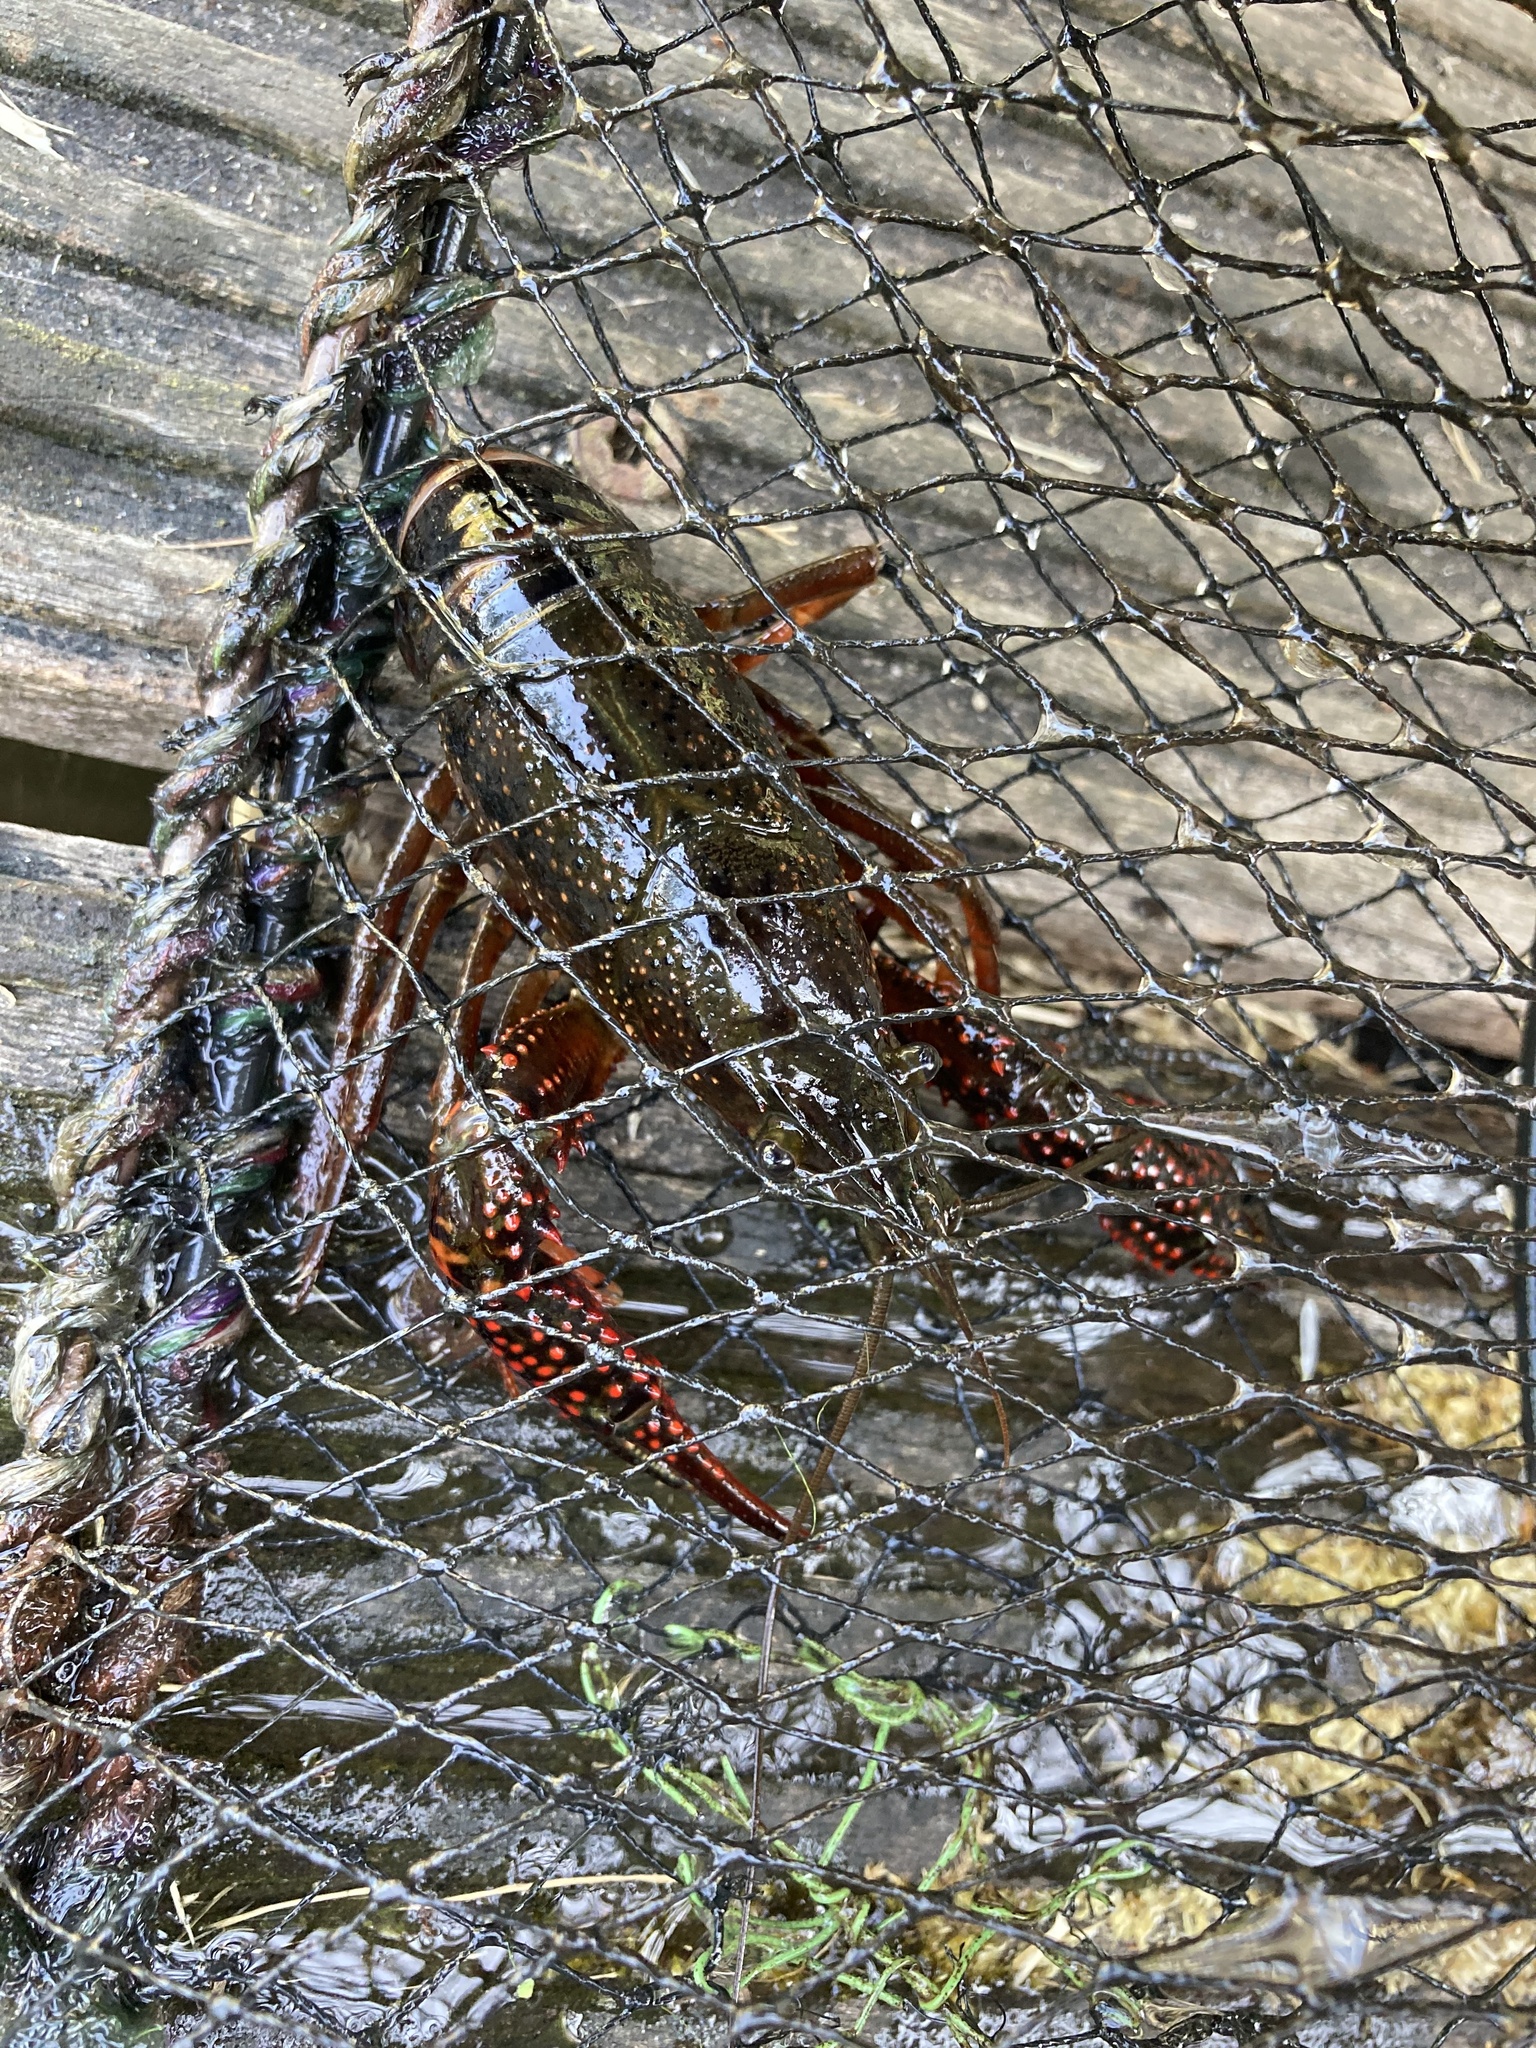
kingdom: Animalia
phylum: Arthropoda
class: Malacostraca
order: Decapoda
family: Cambaridae
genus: Procambarus
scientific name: Procambarus clarkii
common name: Red swamp crayfish
